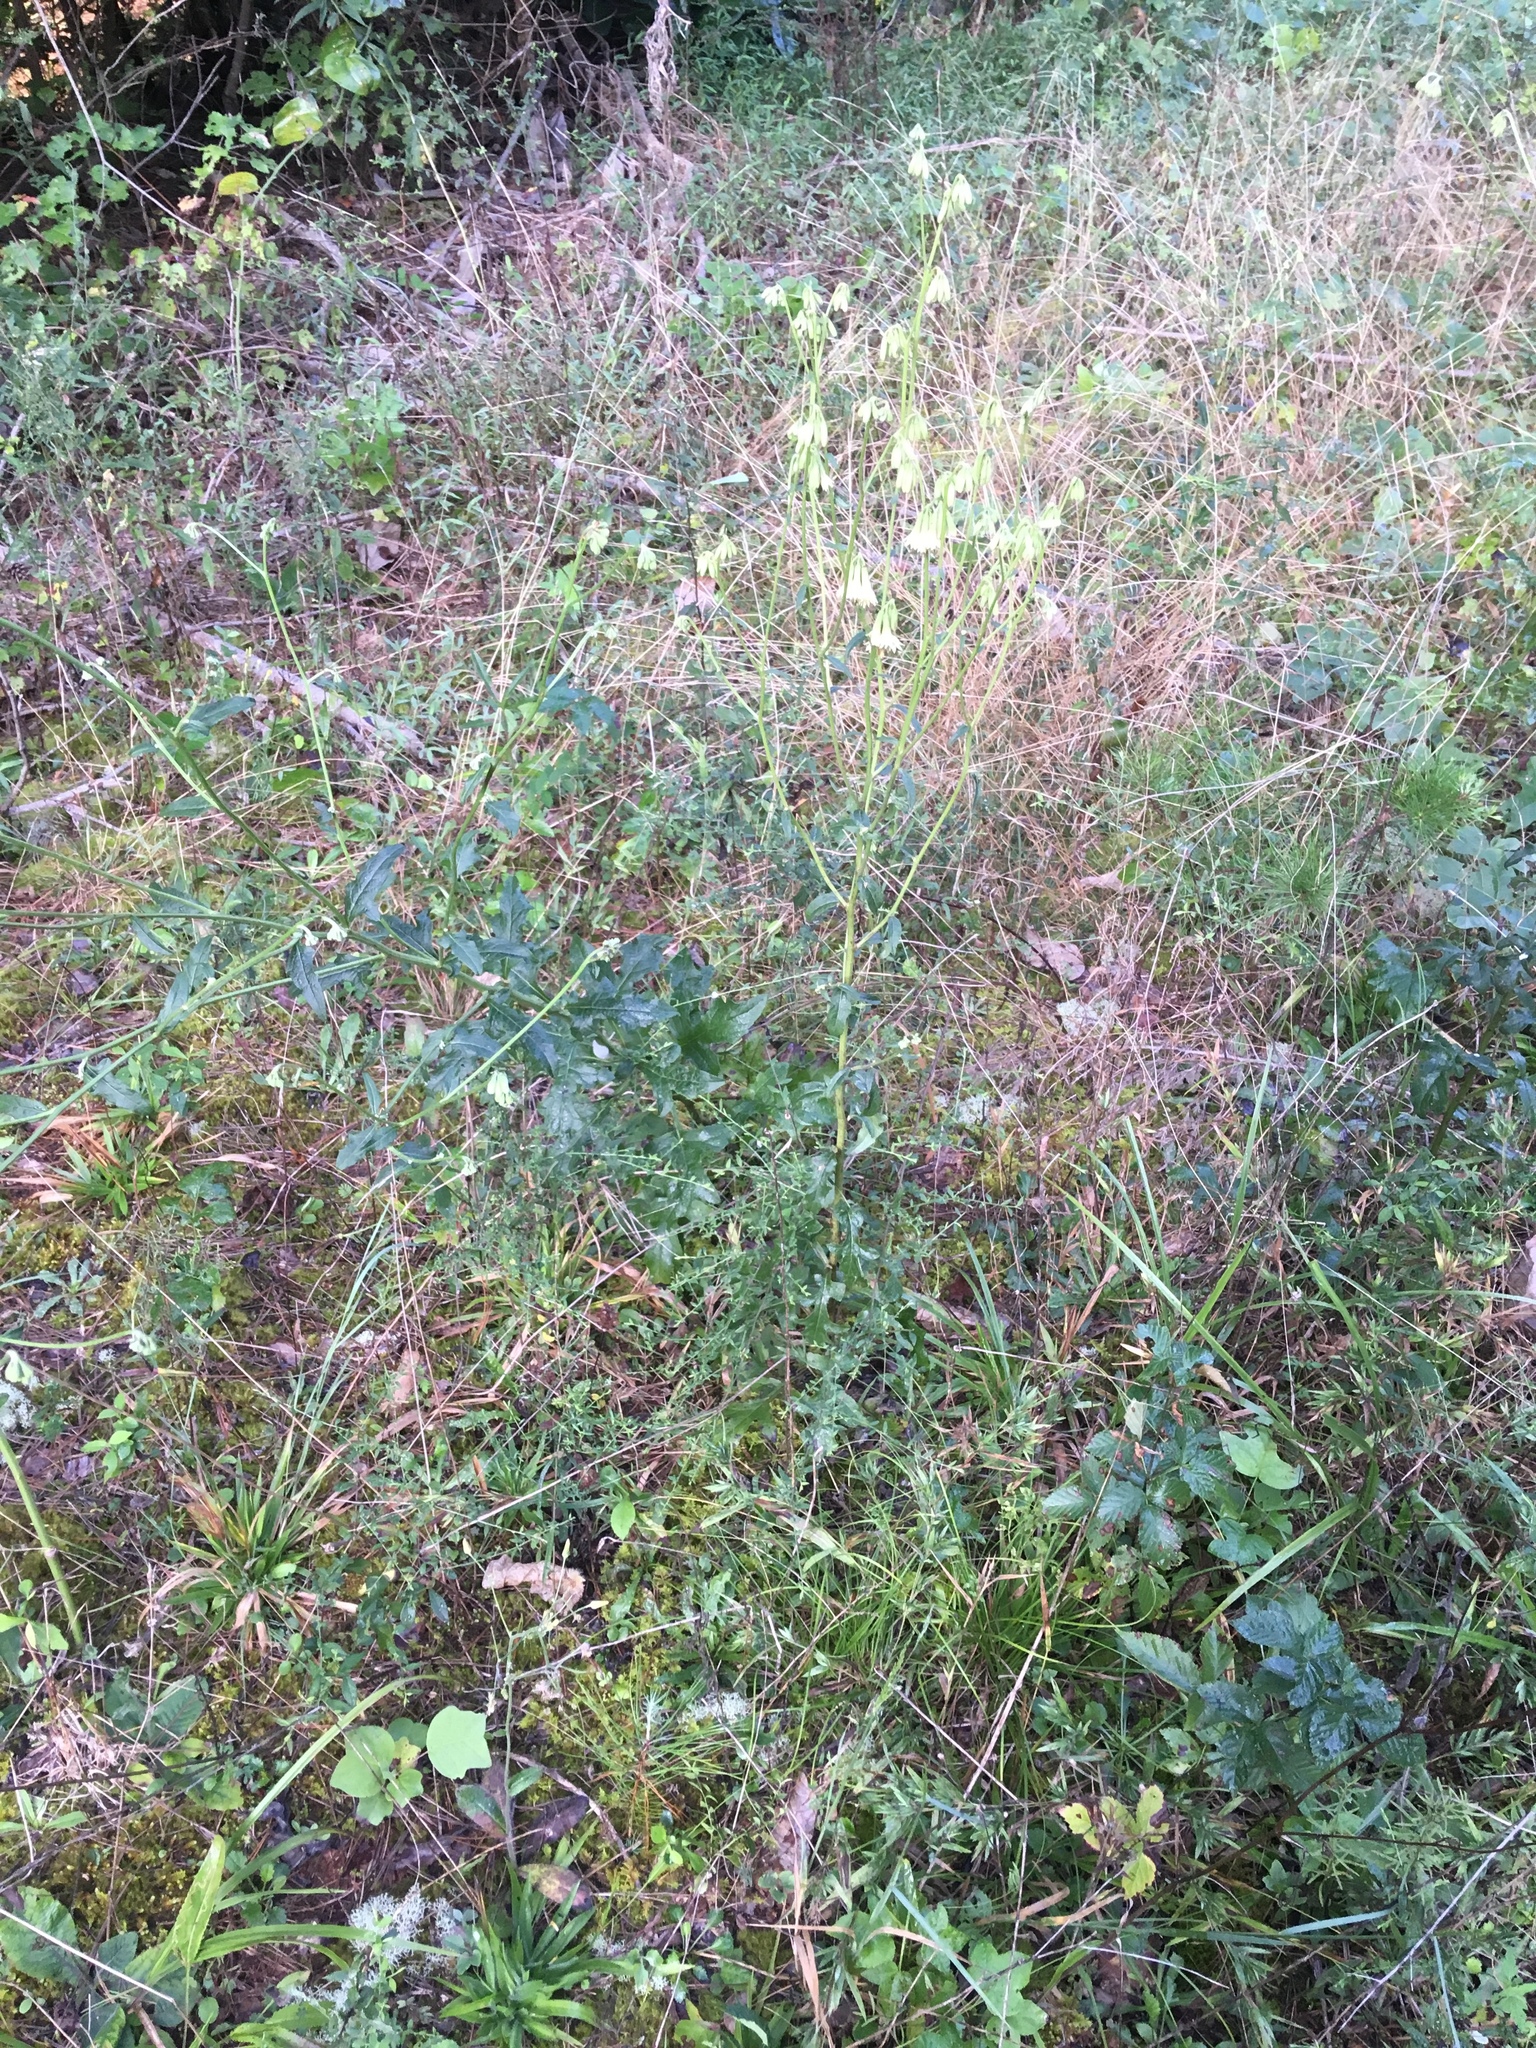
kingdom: Plantae
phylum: Tracheophyta
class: Magnoliopsida
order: Asterales
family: Asteraceae
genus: Nabalus
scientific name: Nabalus serpentarius
